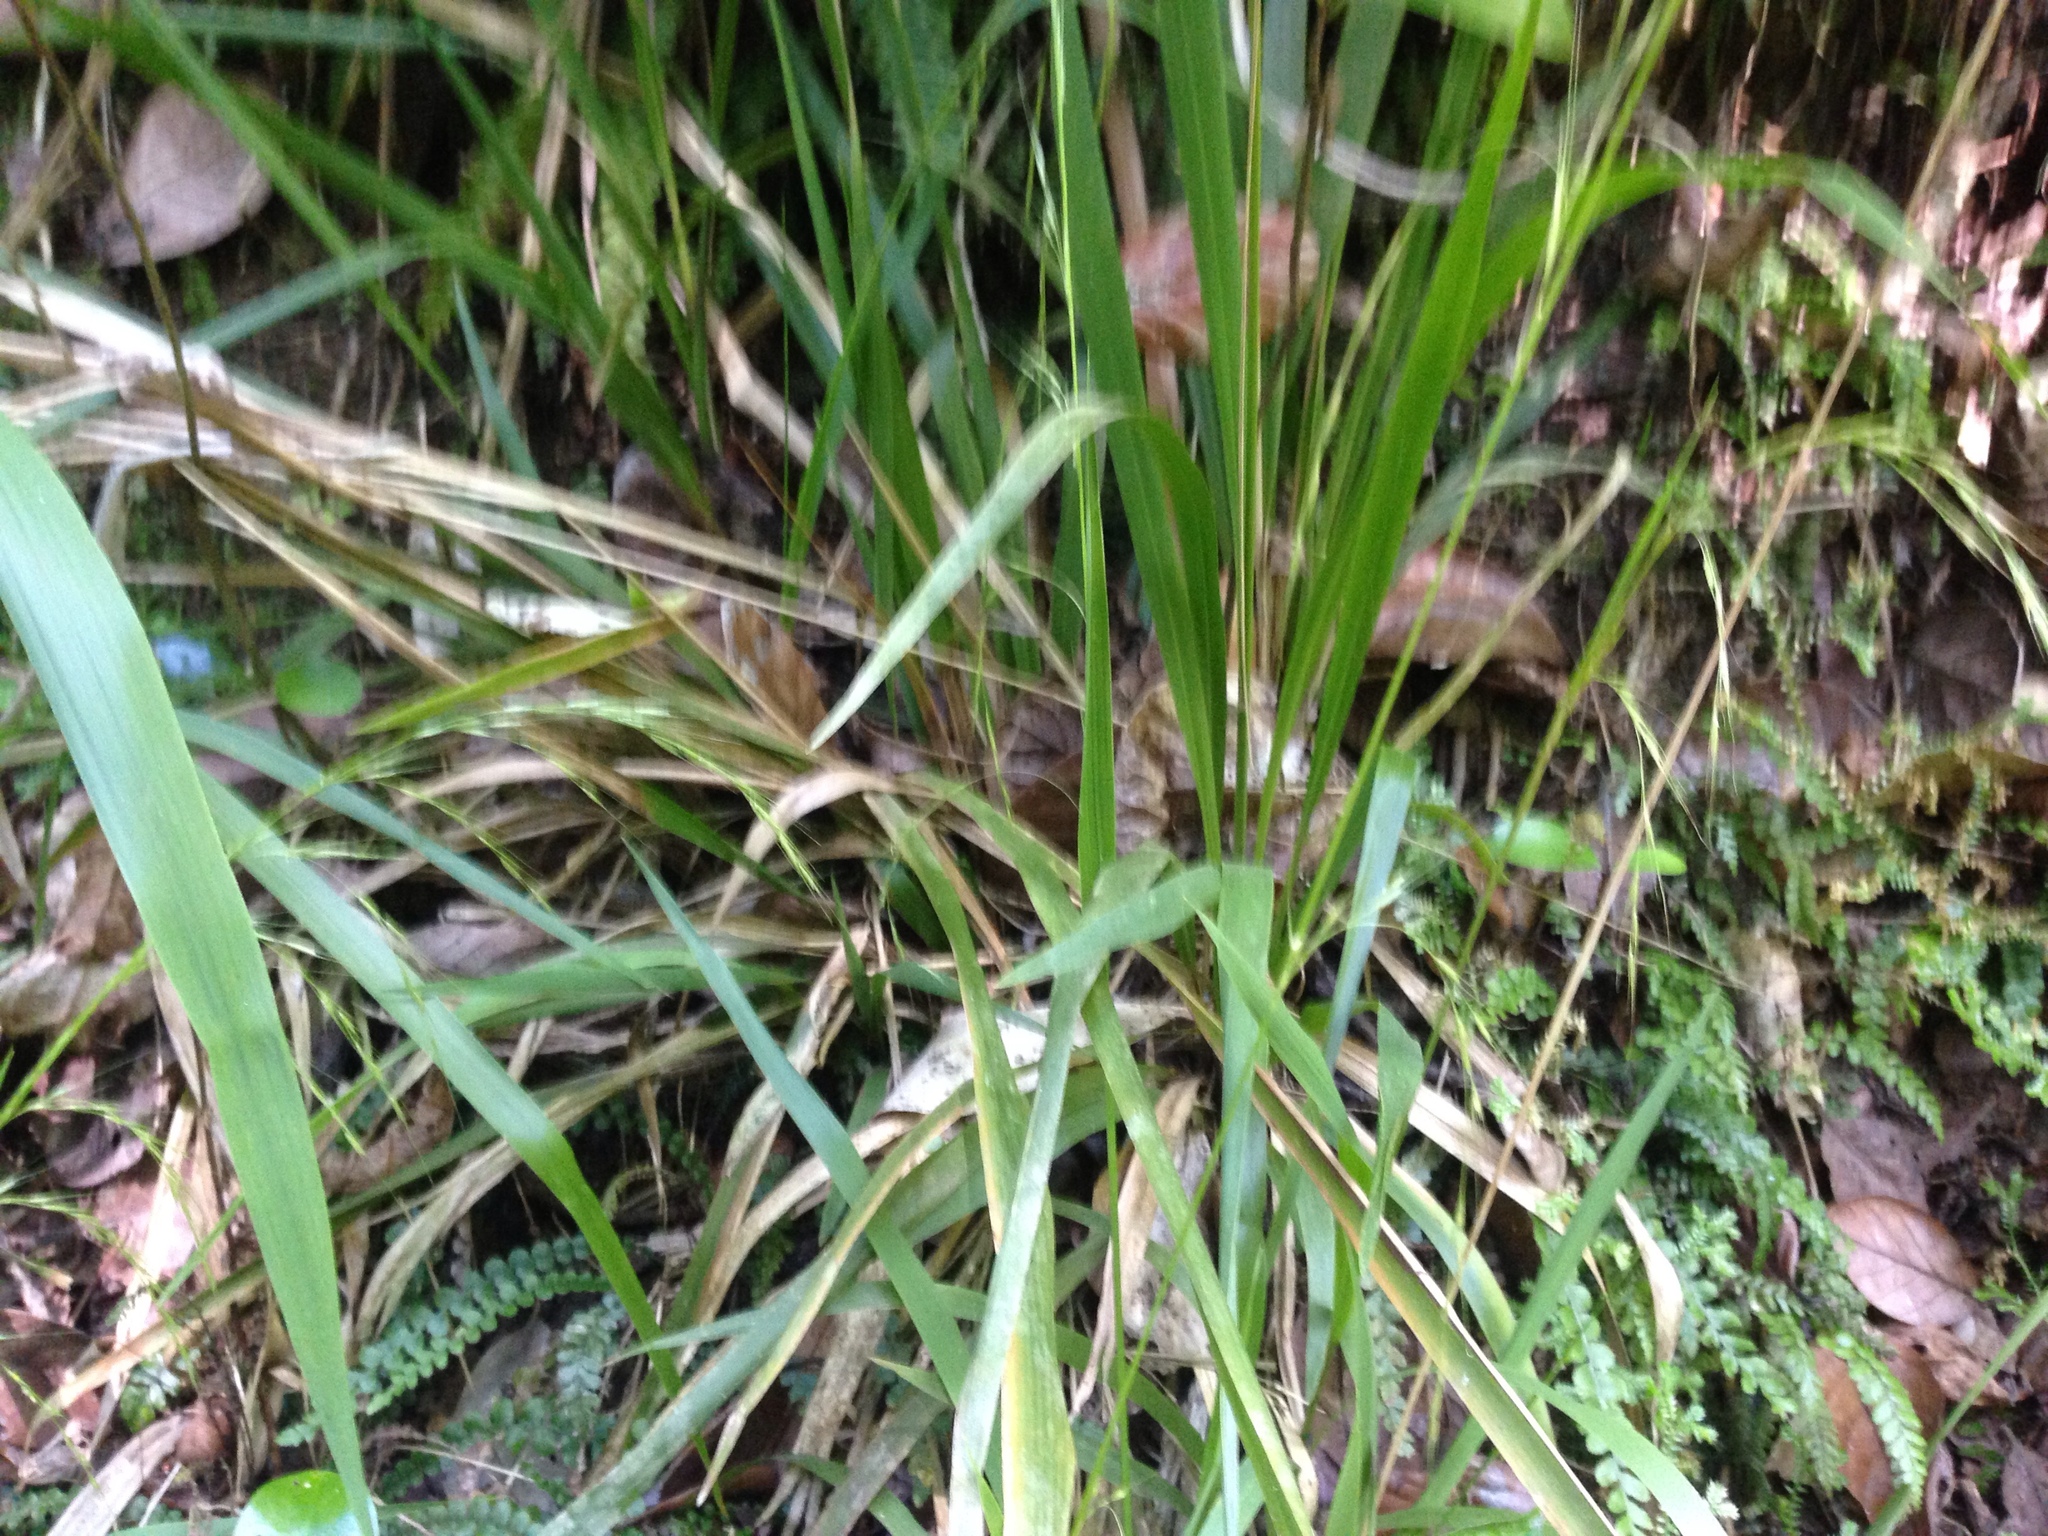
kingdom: Plantae
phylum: Tracheophyta
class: Liliopsida
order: Poales
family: Poaceae
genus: Ehrharta
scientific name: Ehrharta diplax
